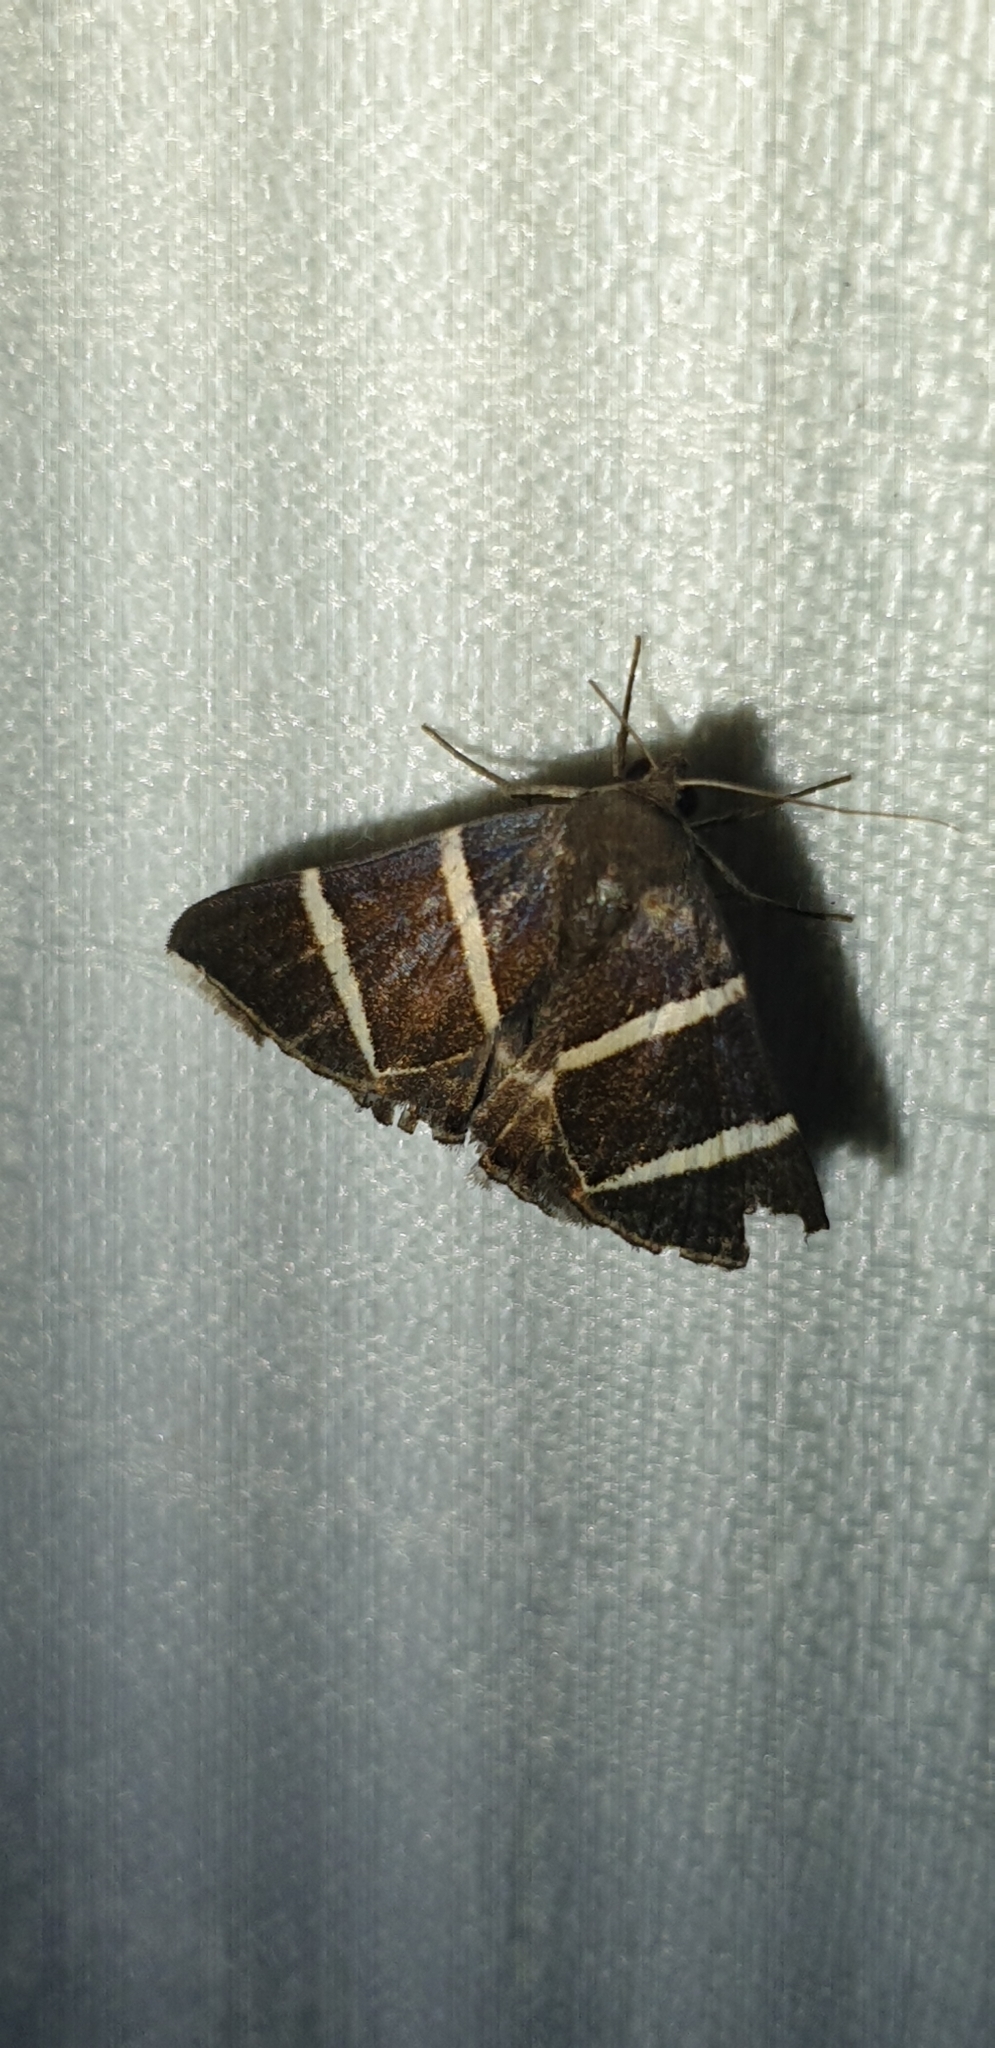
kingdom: Animalia
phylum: Arthropoda
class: Insecta
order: Lepidoptera
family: Erebidae
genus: Grammodes
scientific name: Grammodes justa
